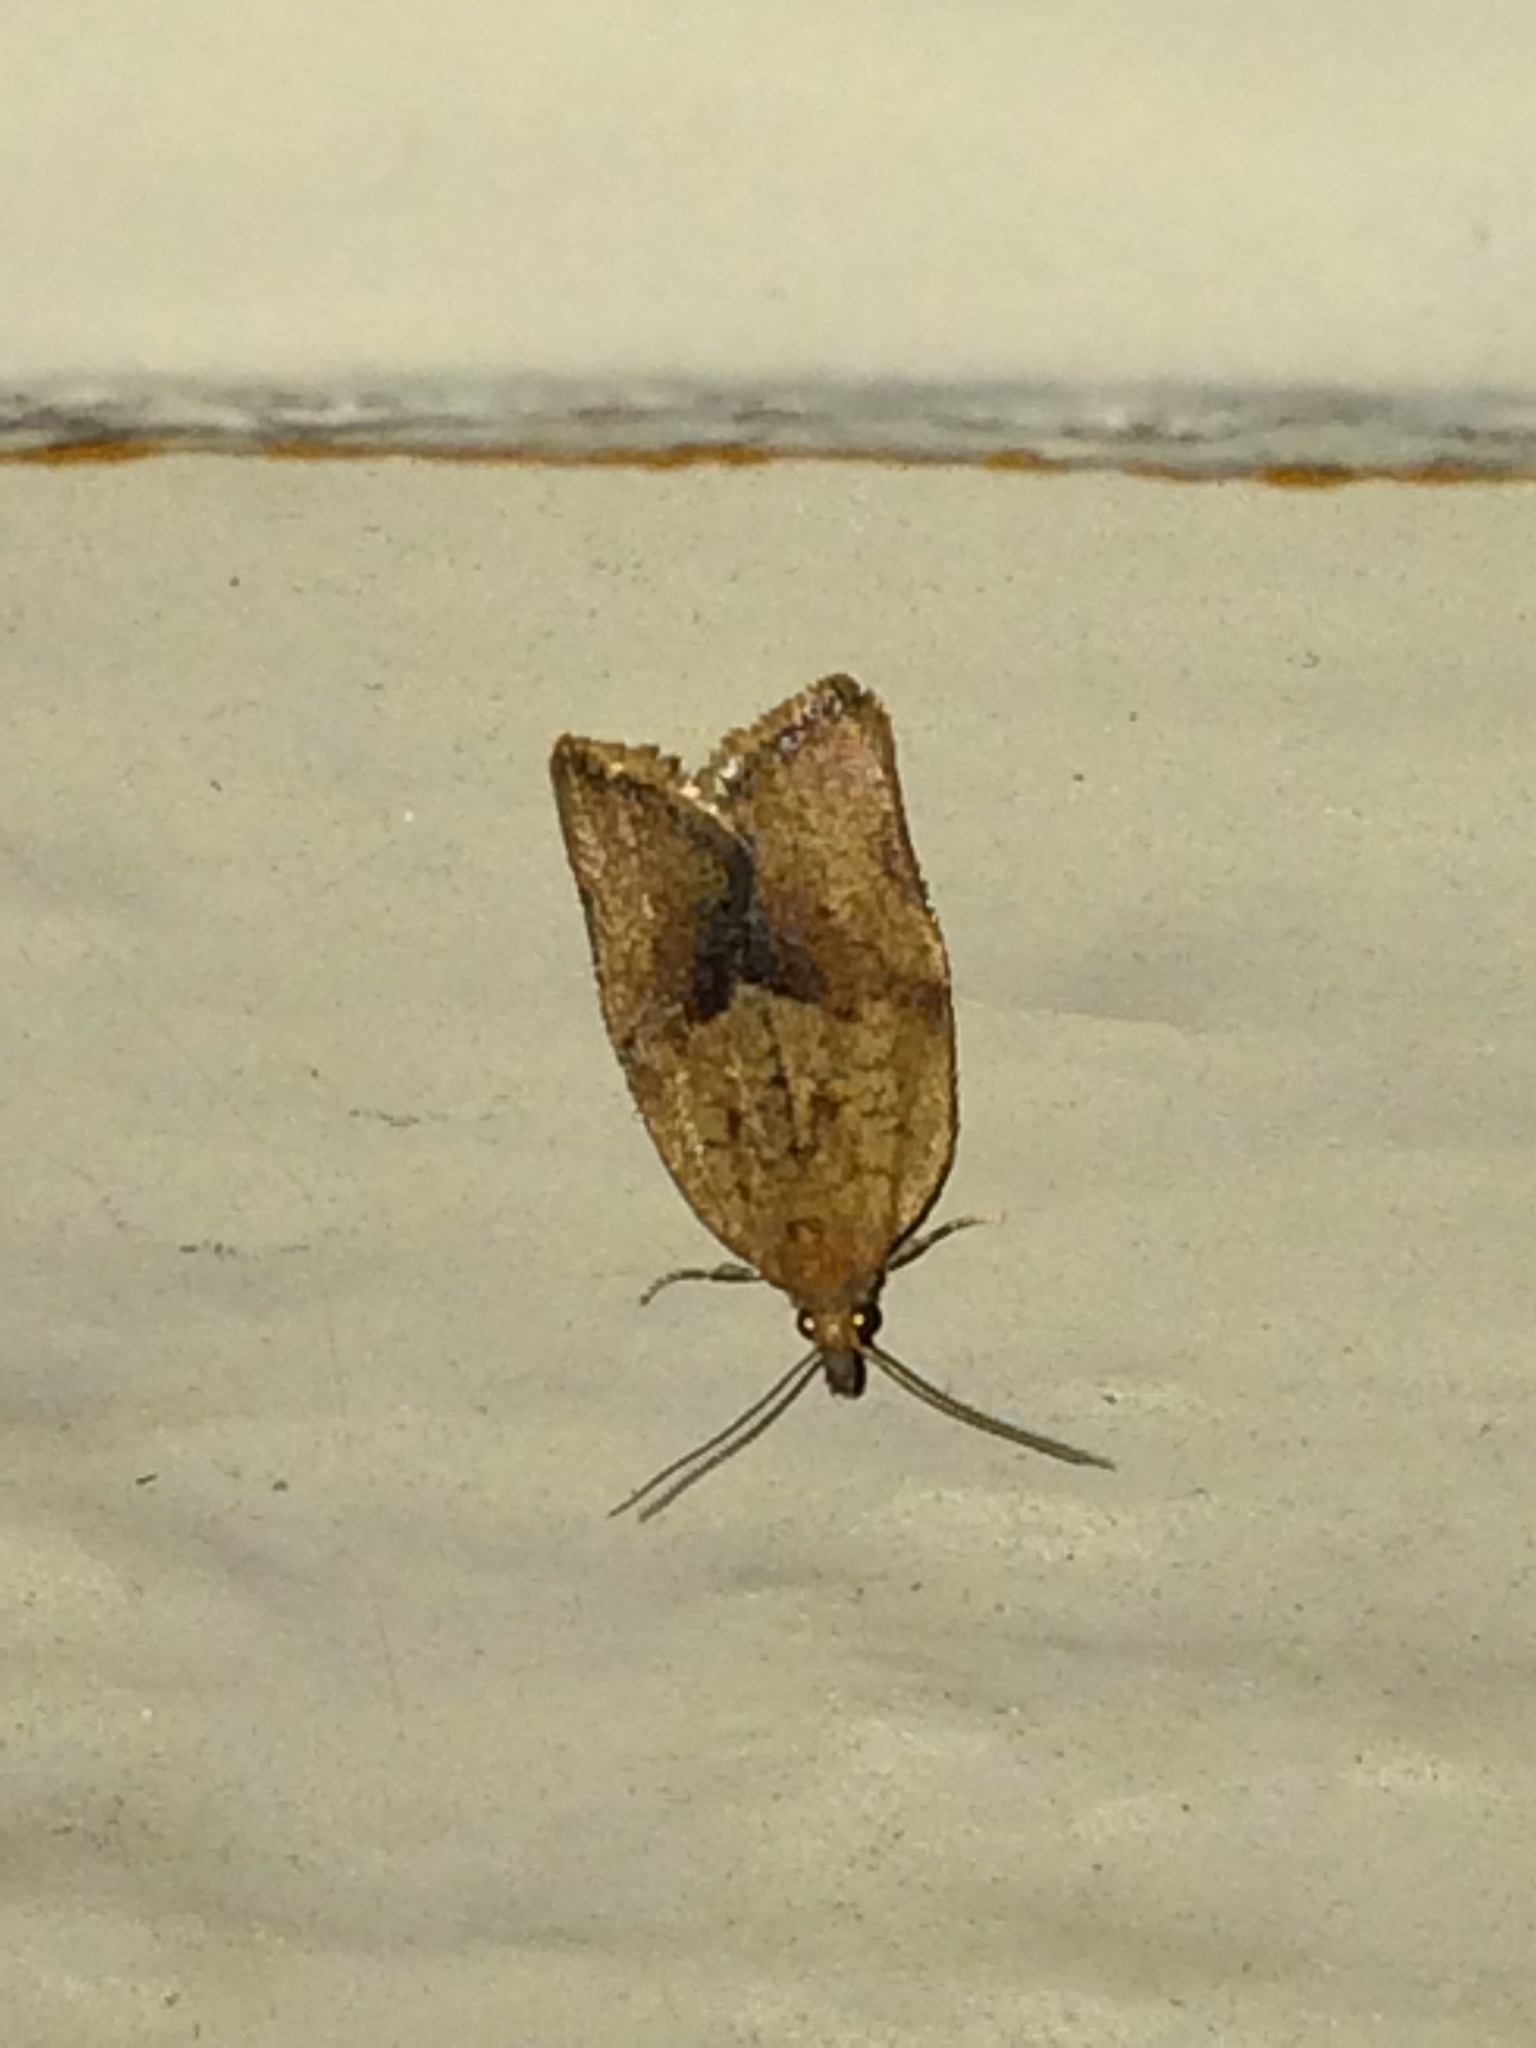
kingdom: Animalia
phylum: Arthropoda
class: Insecta
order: Lepidoptera
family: Tortricidae
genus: Argyrotaenia
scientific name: Argyrotaenia franciscana
